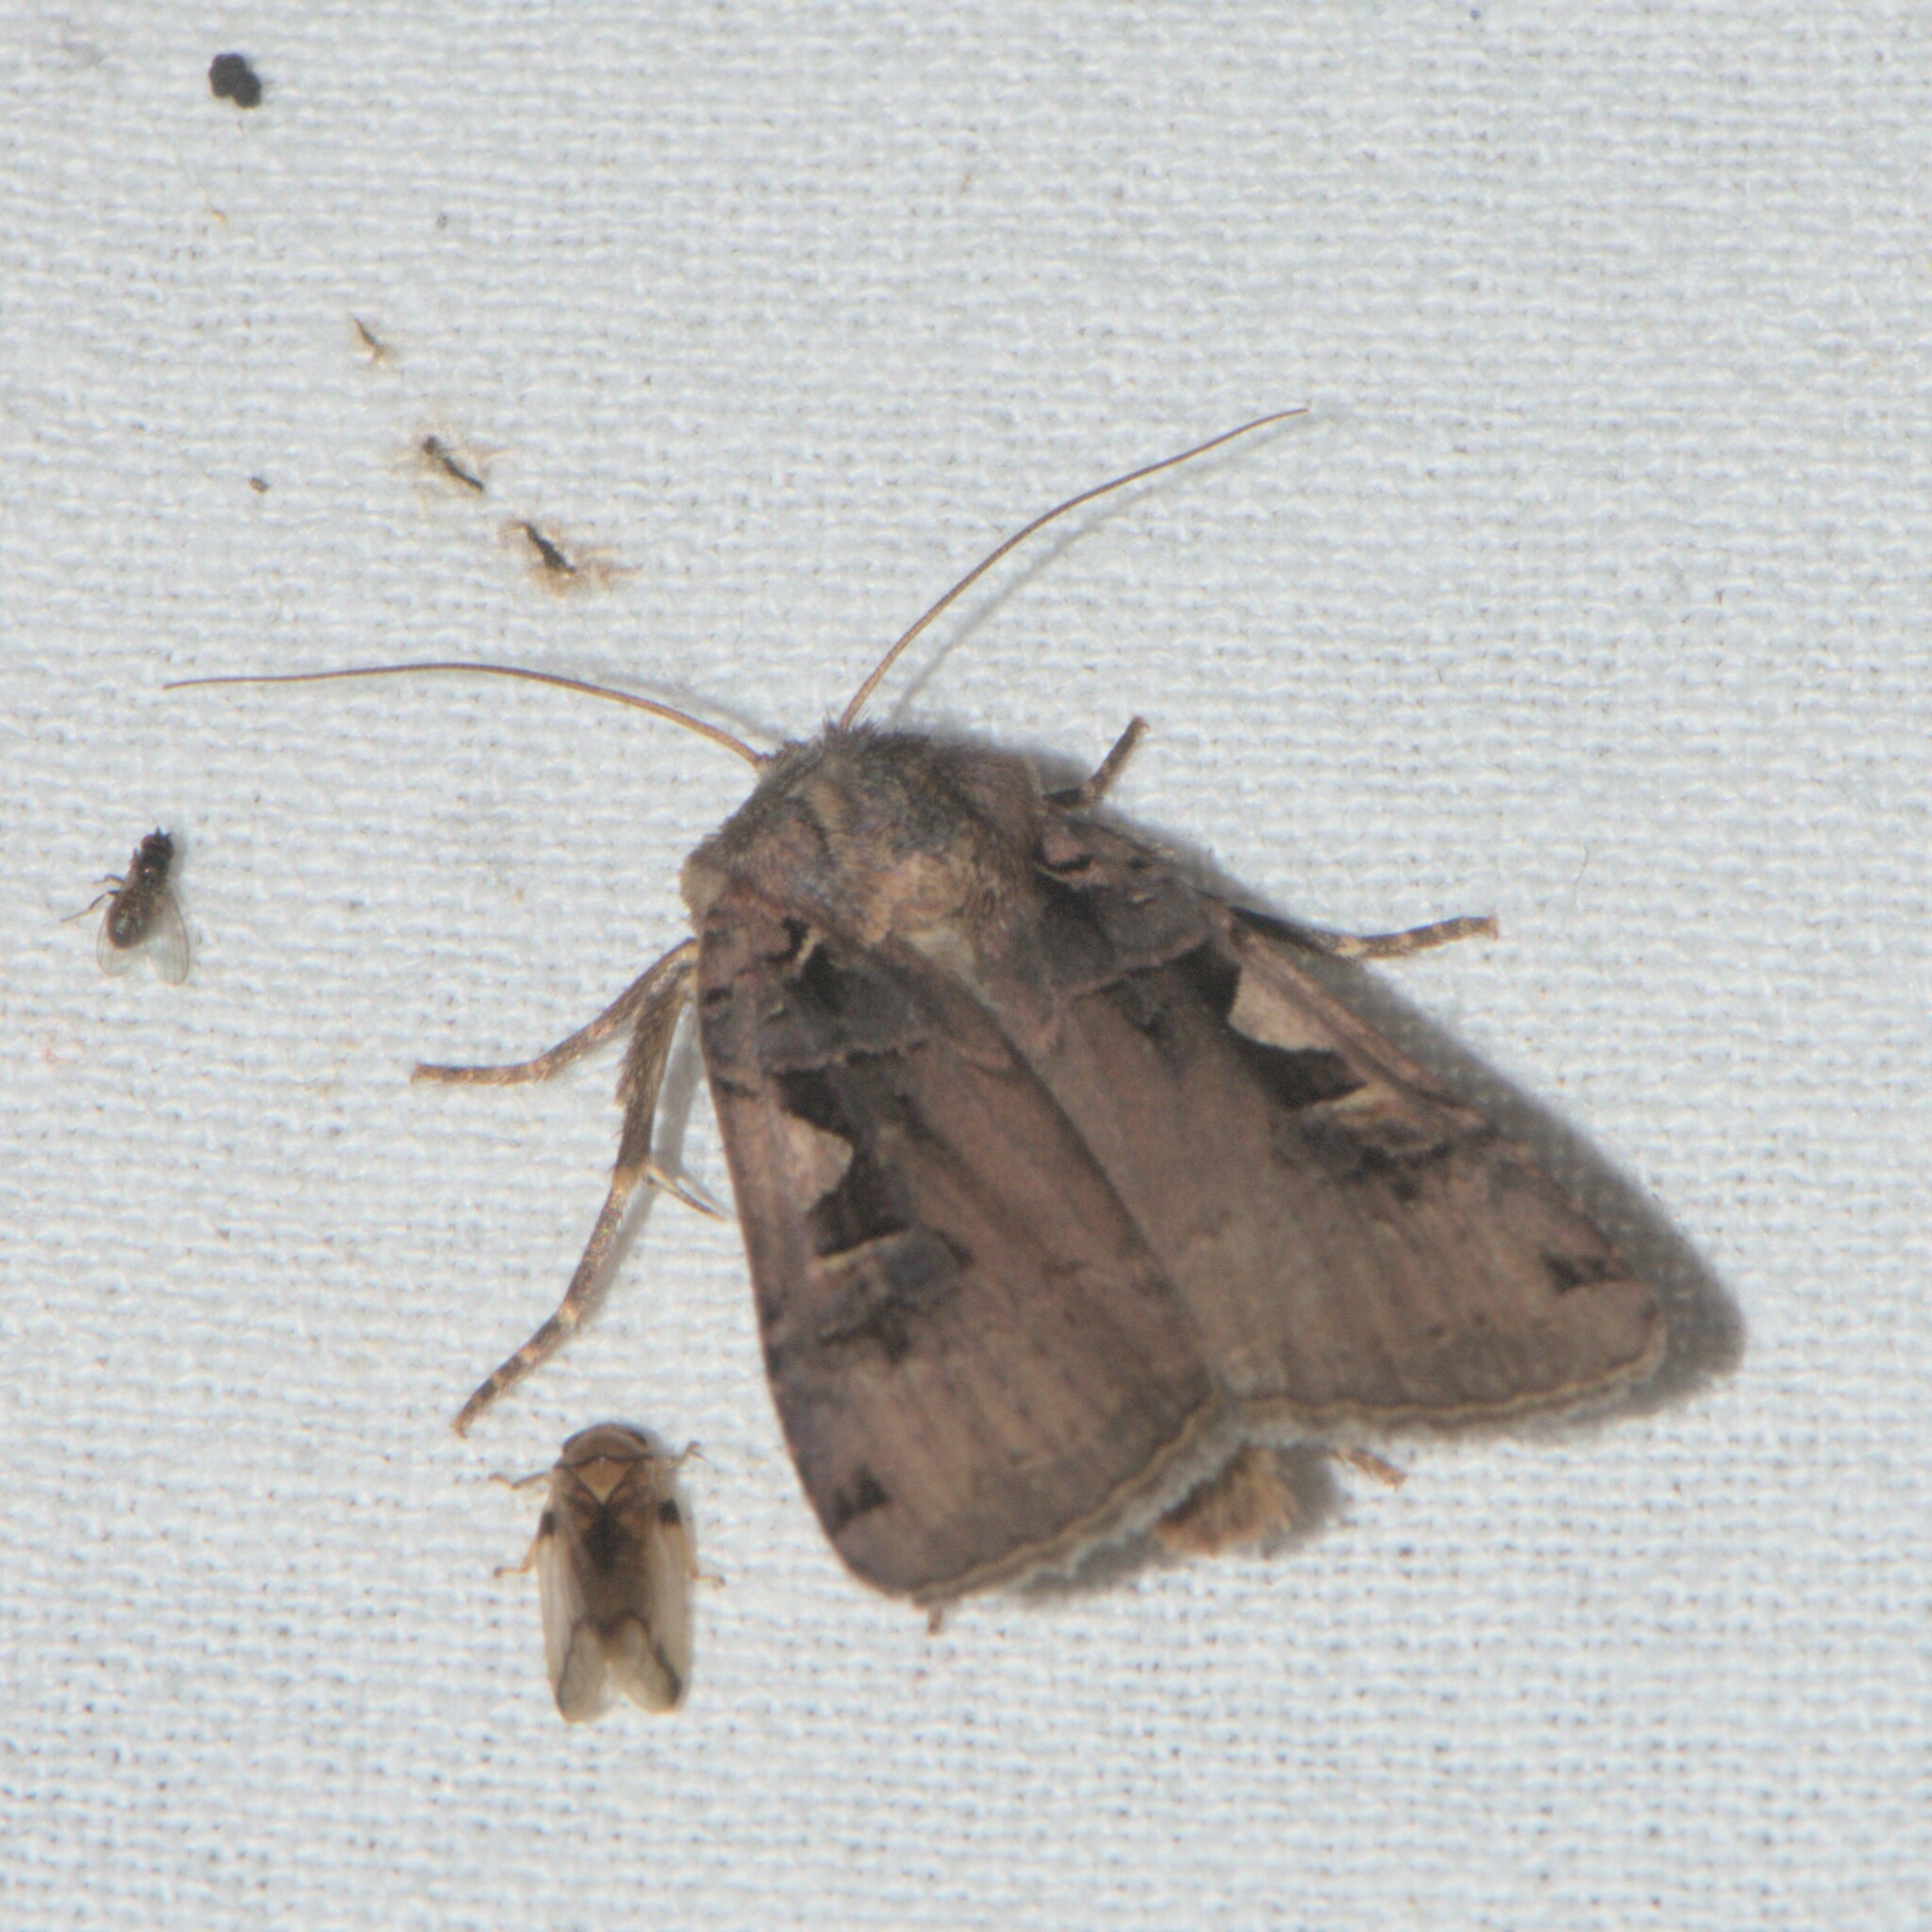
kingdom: Animalia
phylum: Arthropoda
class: Insecta
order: Lepidoptera
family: Noctuidae
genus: Xestia
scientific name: Xestia c-nigrum
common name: Setaceous hebrew character
